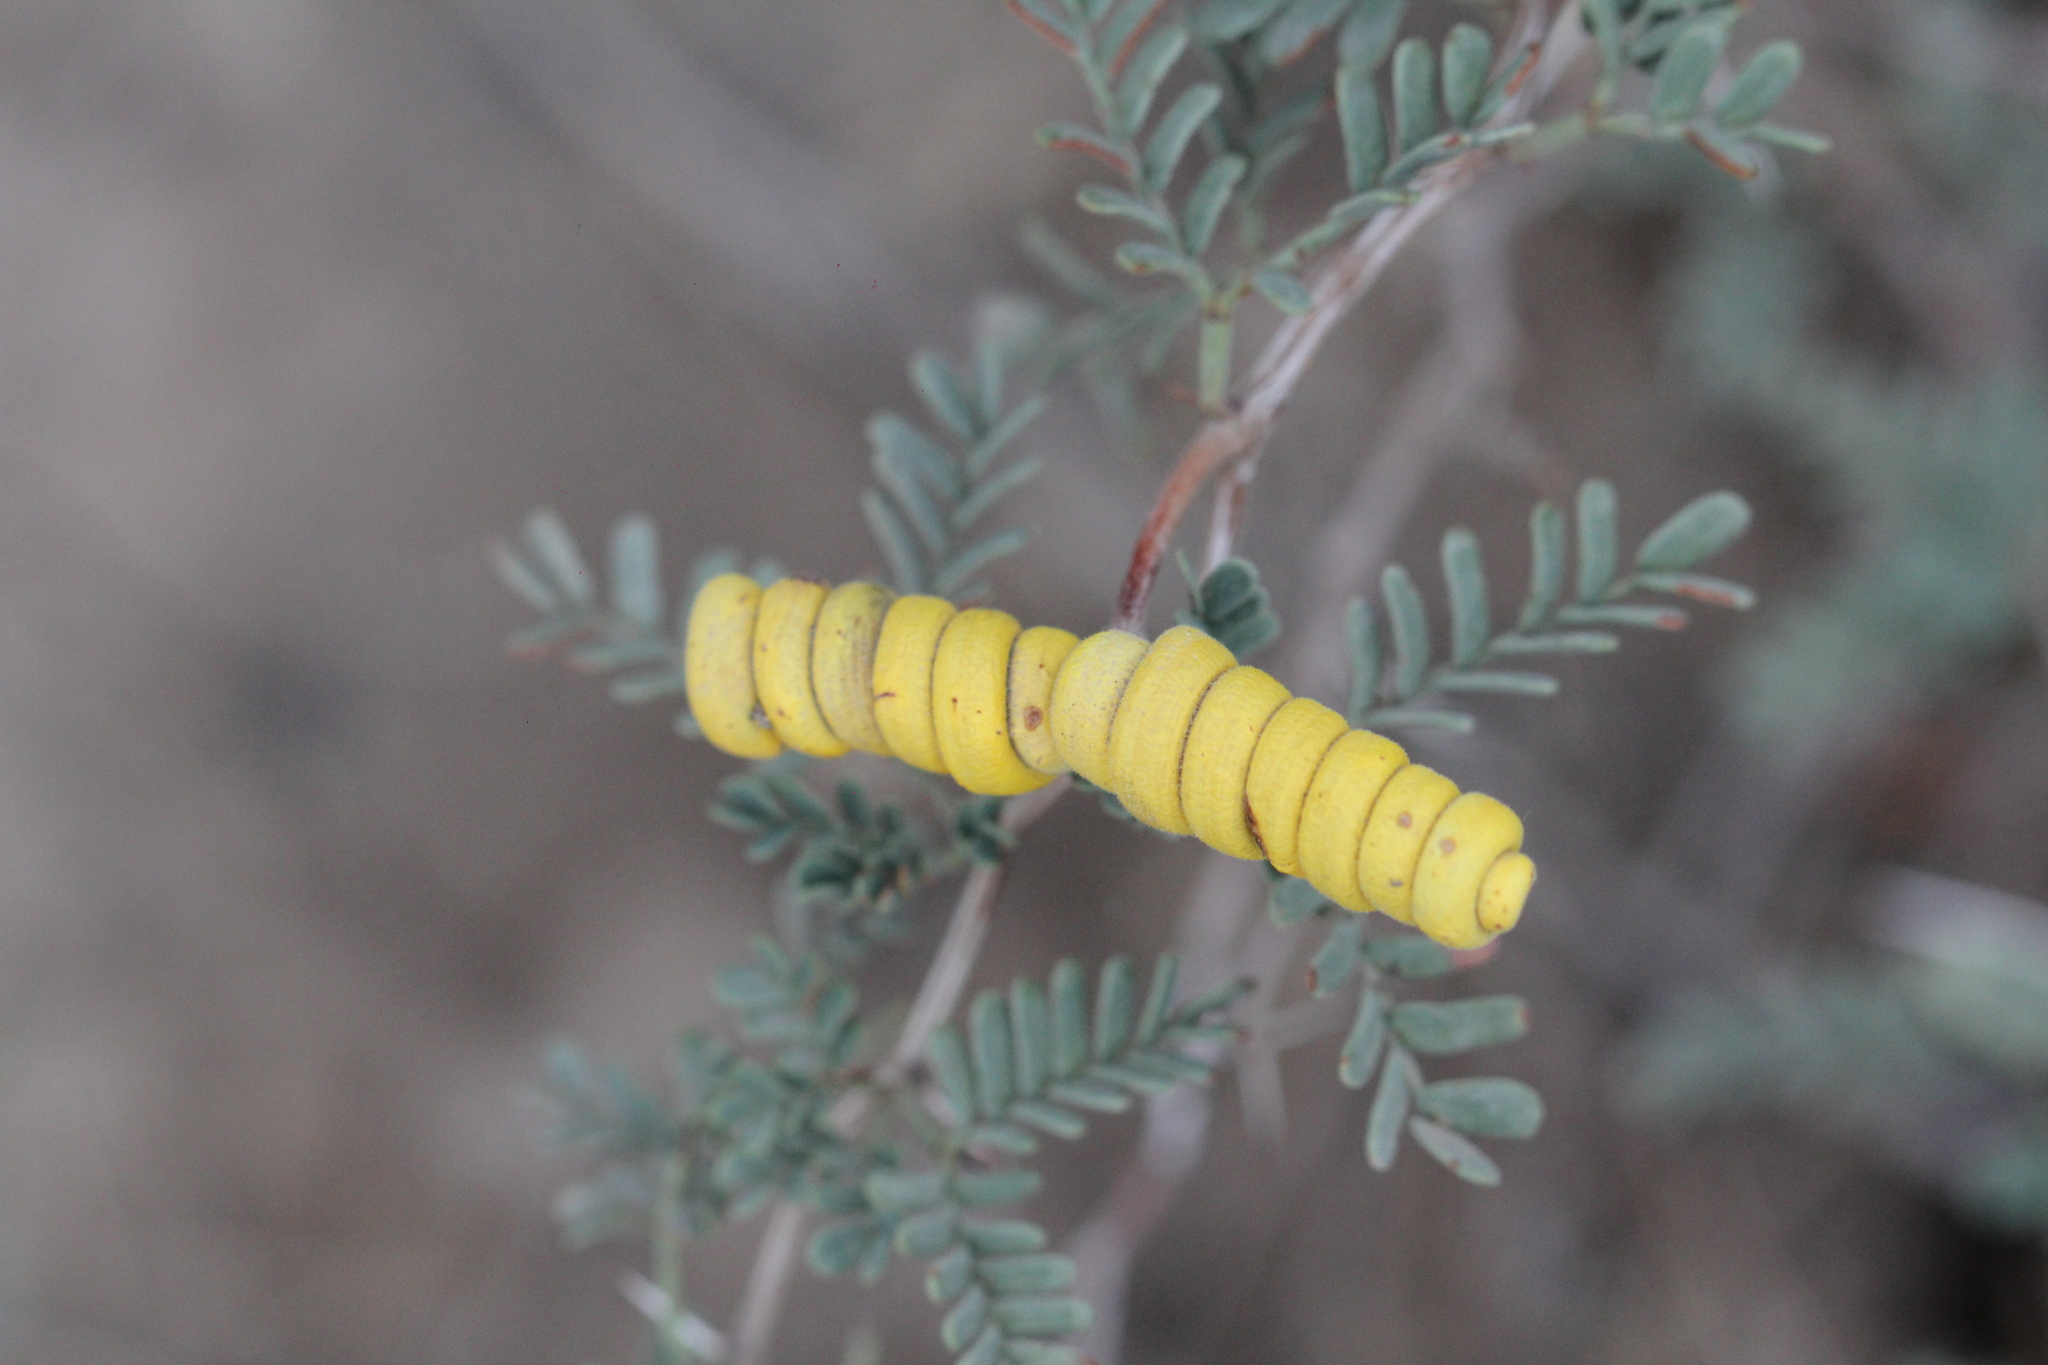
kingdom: Plantae
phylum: Tracheophyta
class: Magnoliopsida
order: Fabales
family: Fabaceae
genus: Prosopis
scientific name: Prosopis strombulifera
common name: Creeping mesquite
